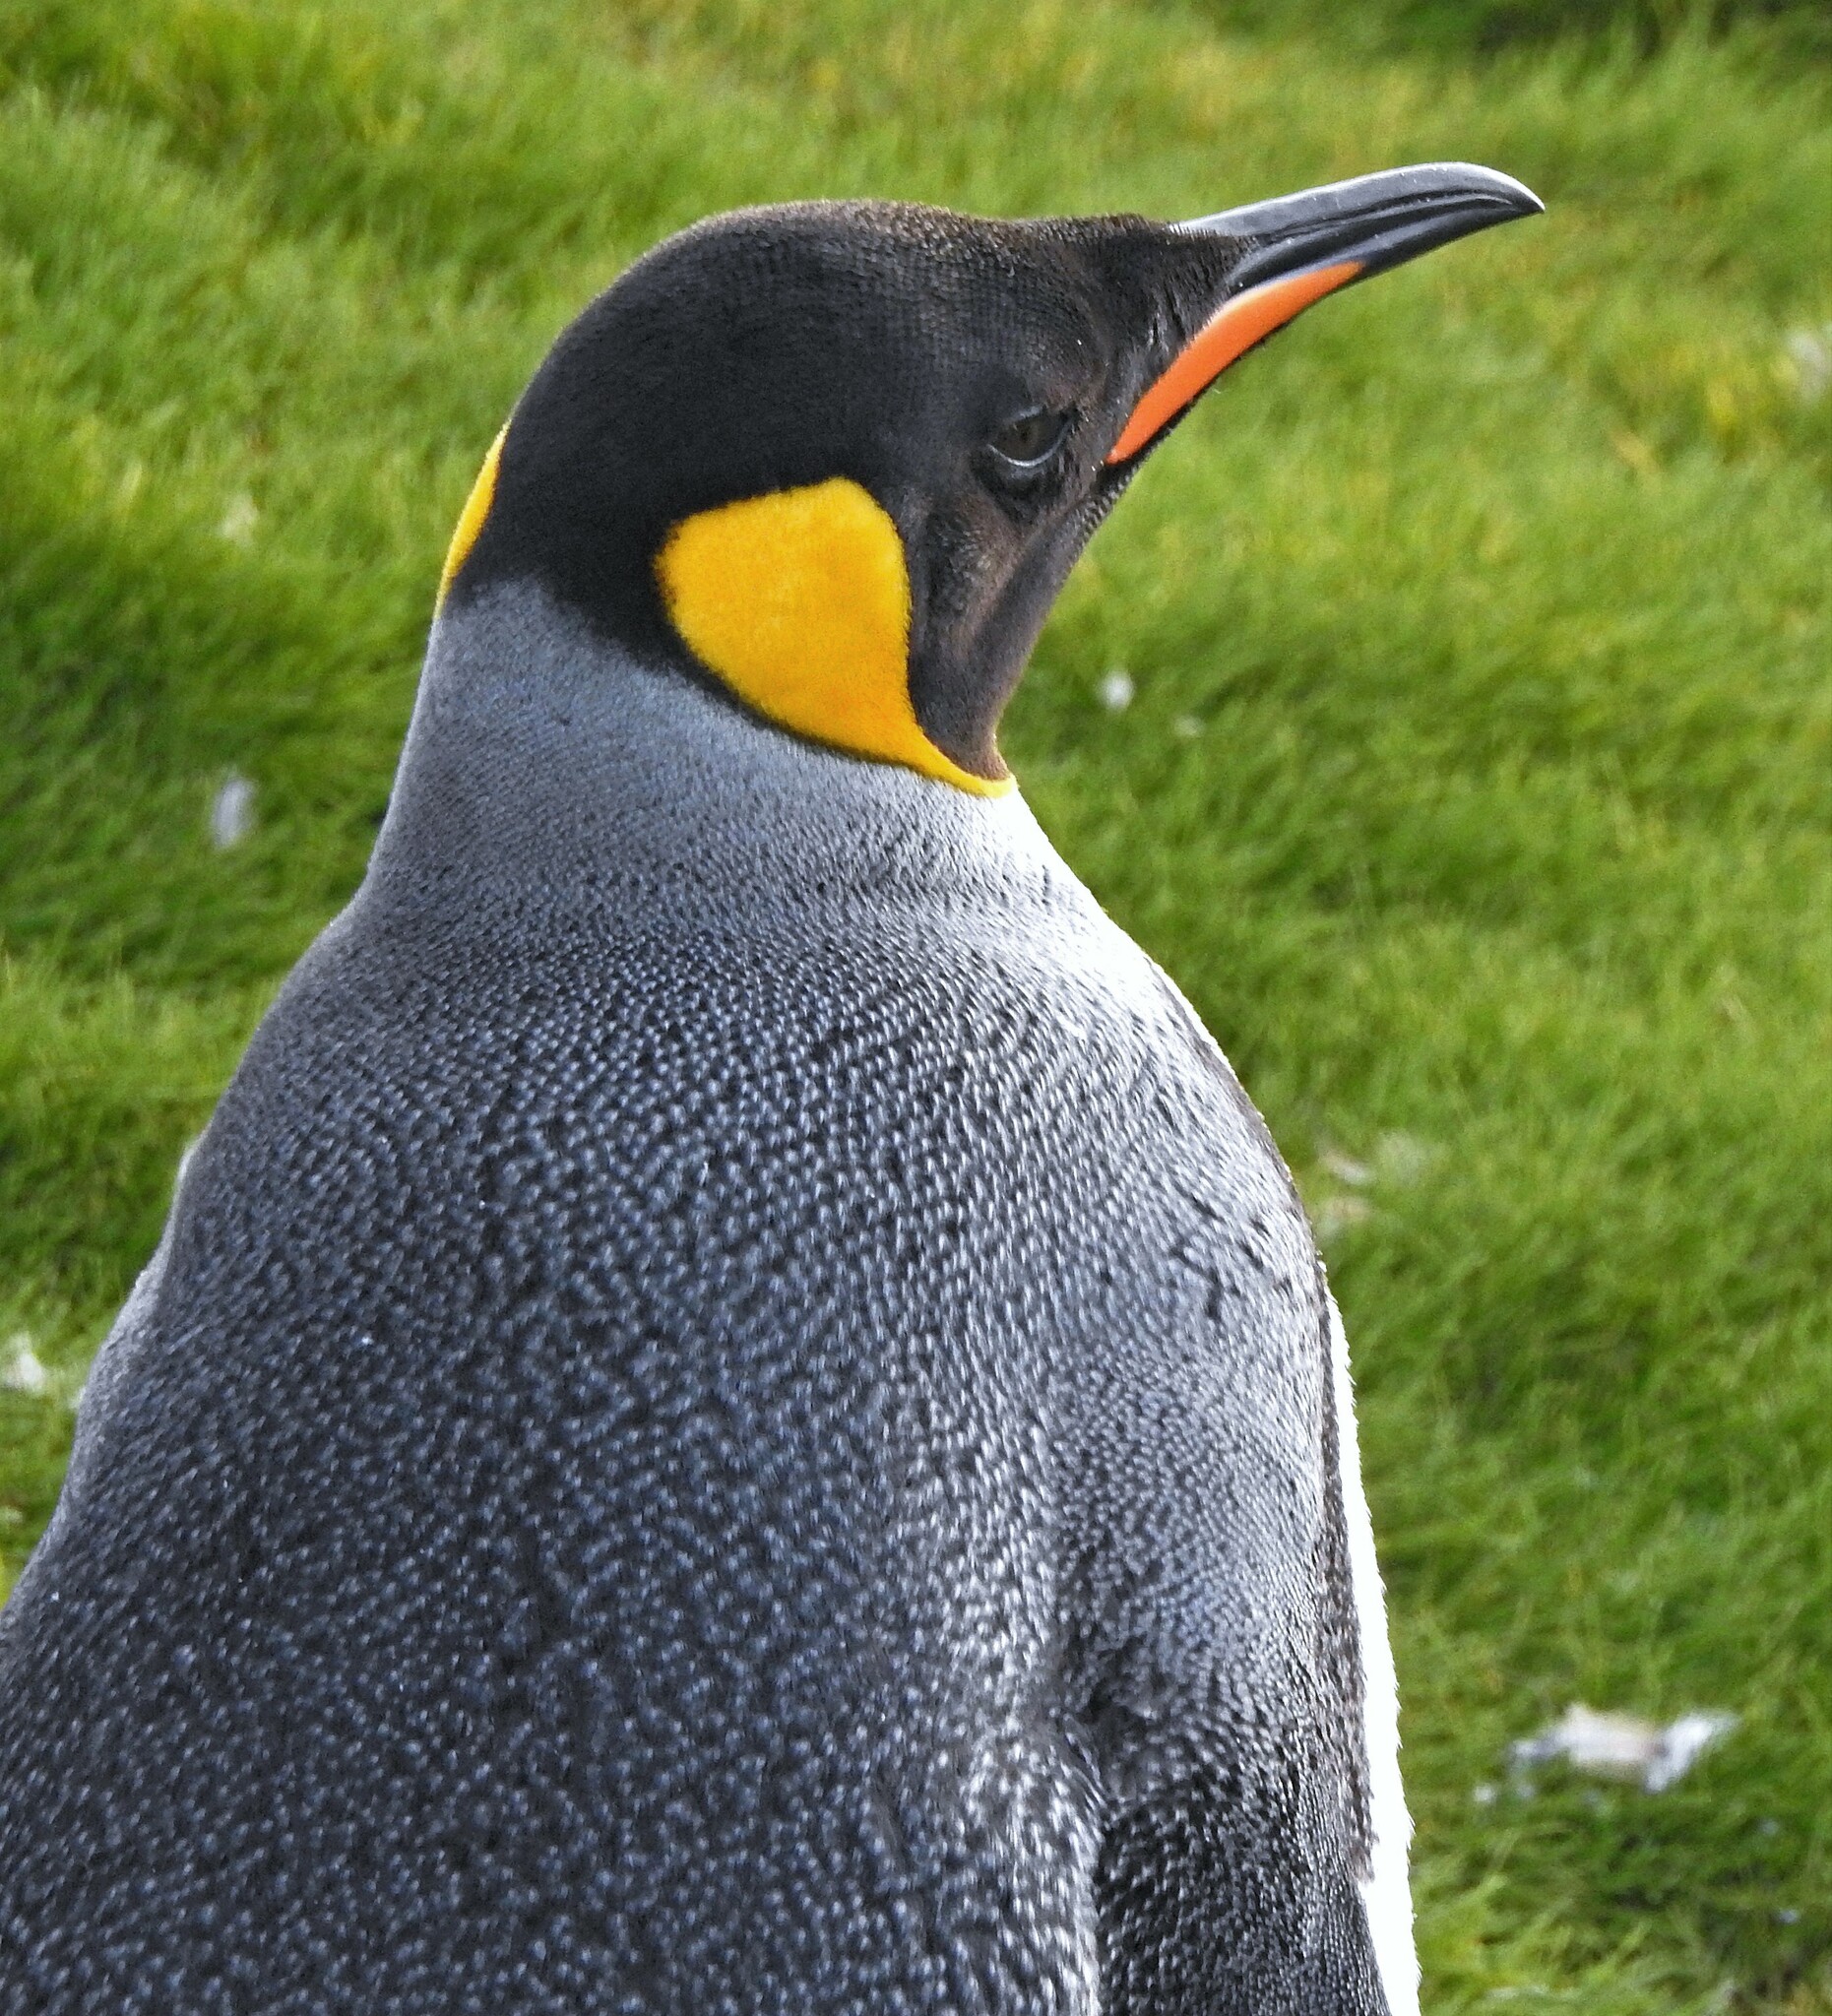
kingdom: Animalia
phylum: Chordata
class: Aves
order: Sphenisciformes
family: Spheniscidae
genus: Aptenodytes
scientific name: Aptenodytes patagonicus
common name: King penguin
